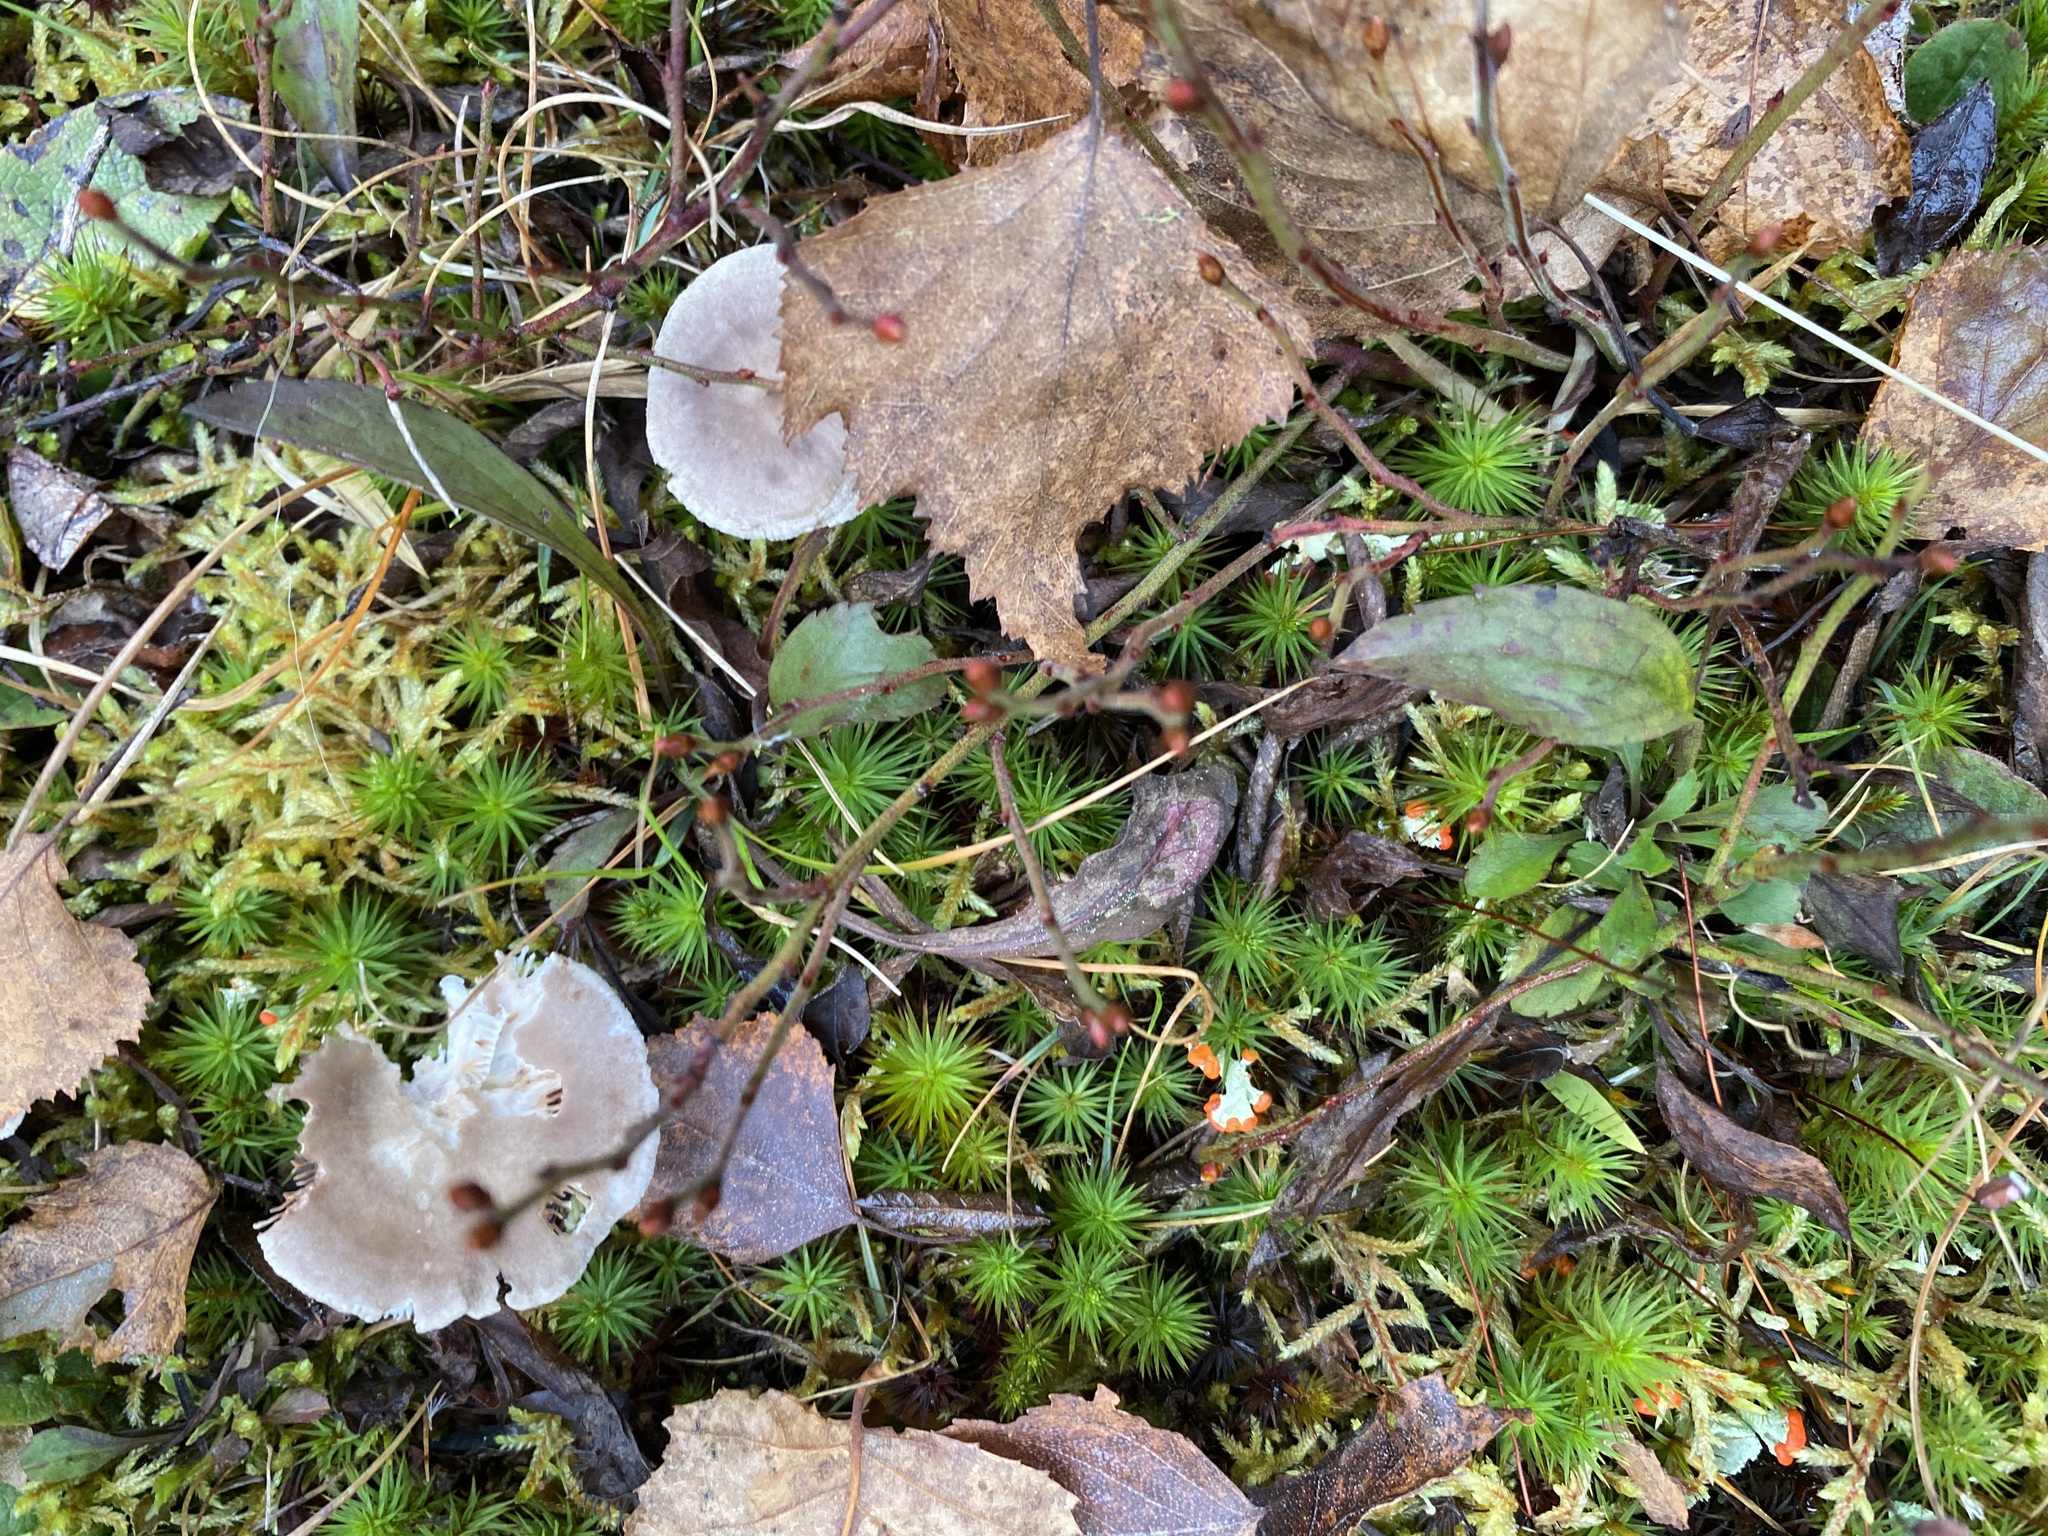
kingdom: Fungi
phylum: Basidiomycota
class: Agaricomycetes
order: Agaricales
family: Hygrophoraceae
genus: Cantharellula
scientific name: Cantharellula umbonata
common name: The humpback
